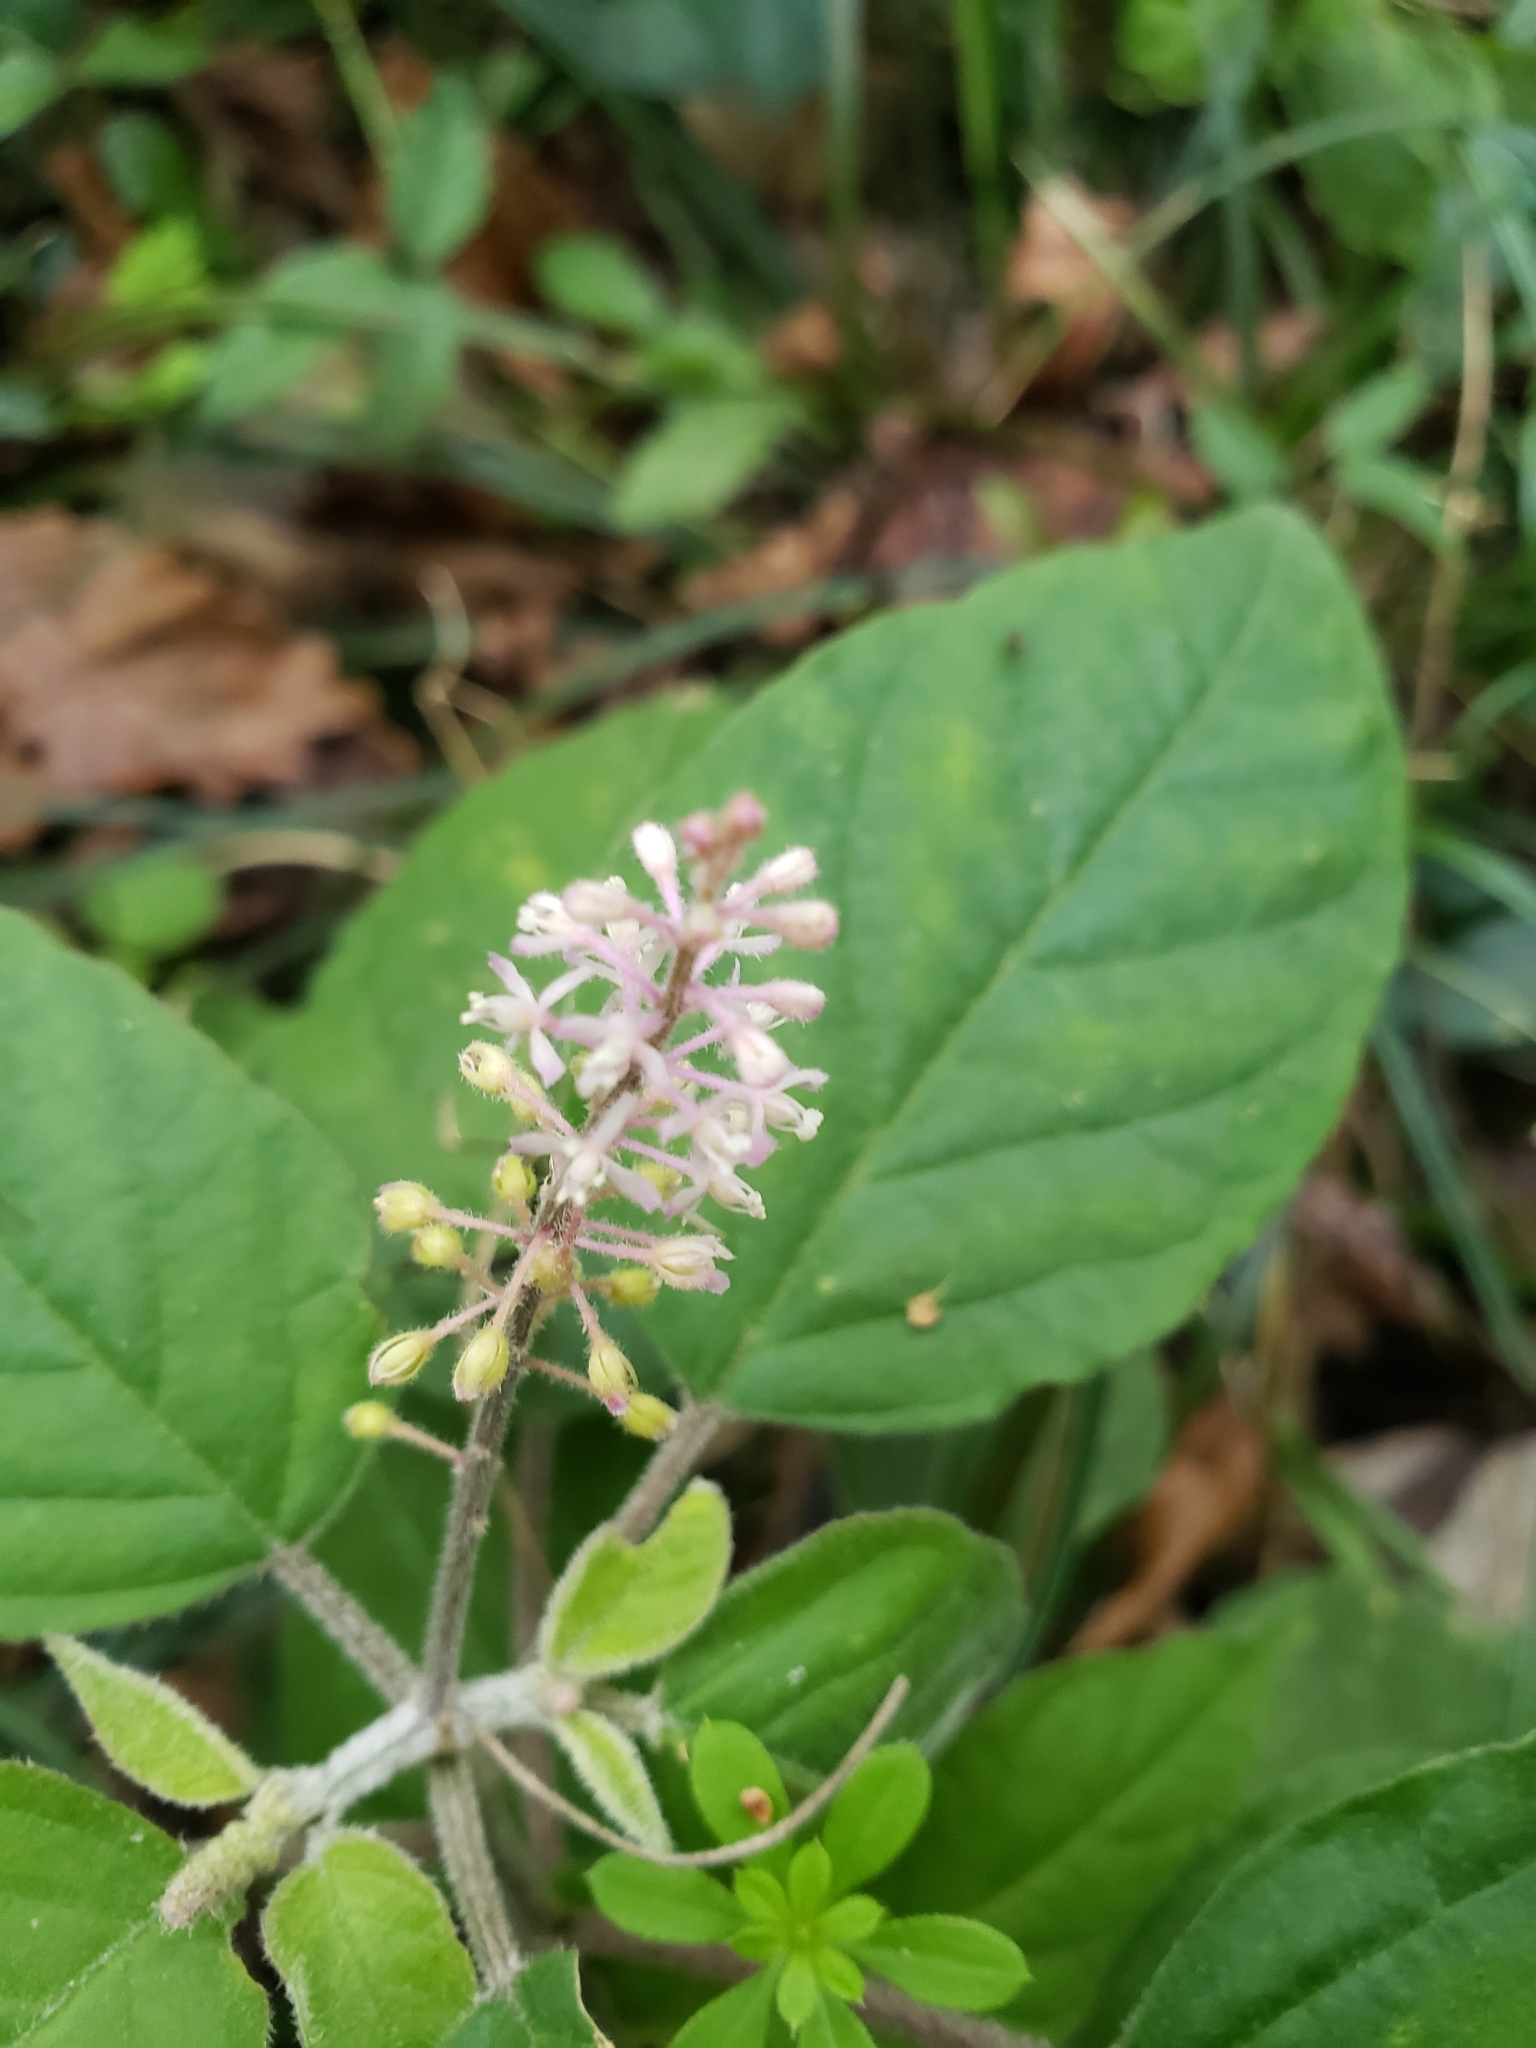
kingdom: Plantae
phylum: Tracheophyta
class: Magnoliopsida
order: Caryophyllales
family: Phytolaccaceae
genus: Rivina
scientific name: Rivina humilis
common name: Rougeplant
